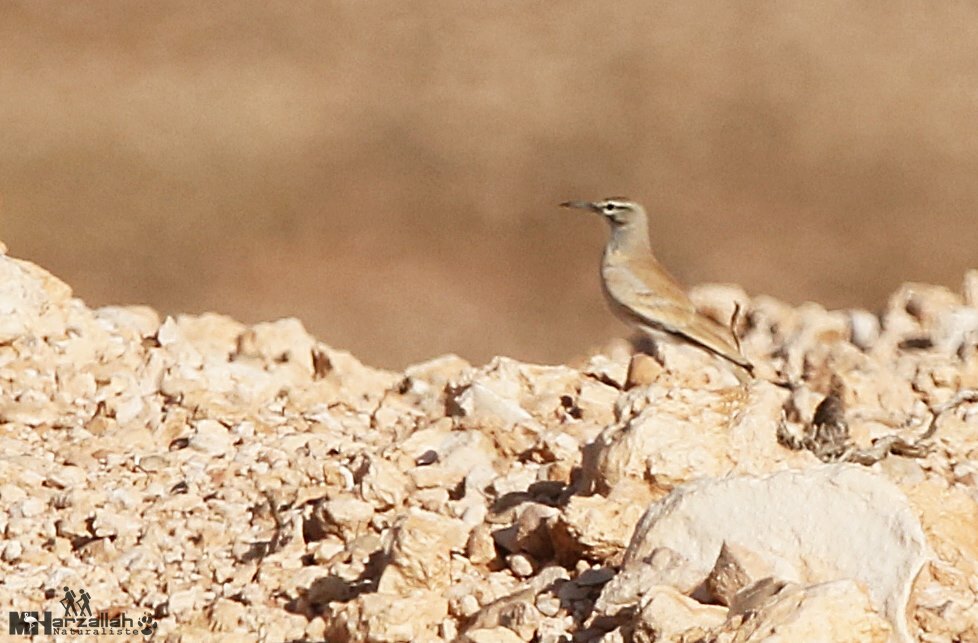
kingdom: Animalia
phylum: Chordata
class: Aves
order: Passeriformes
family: Alaudidae
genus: Alaemon
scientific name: Alaemon alaudipes
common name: Greater hoopoe-lark
